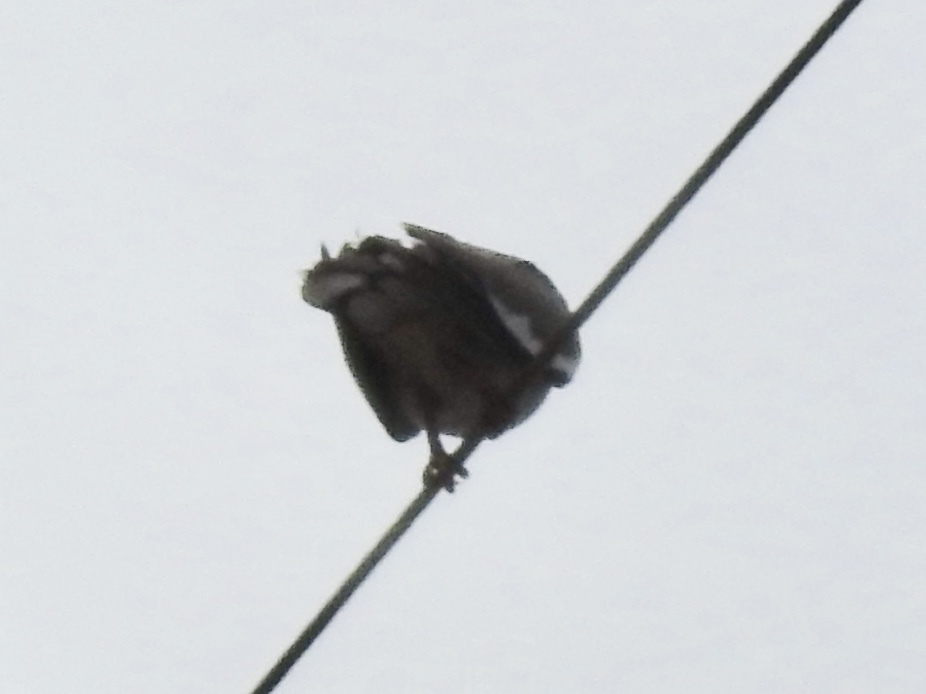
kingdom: Animalia
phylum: Chordata
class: Aves
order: Columbiformes
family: Columbidae
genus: Zenaida
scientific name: Zenaida asiatica
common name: White-winged dove
